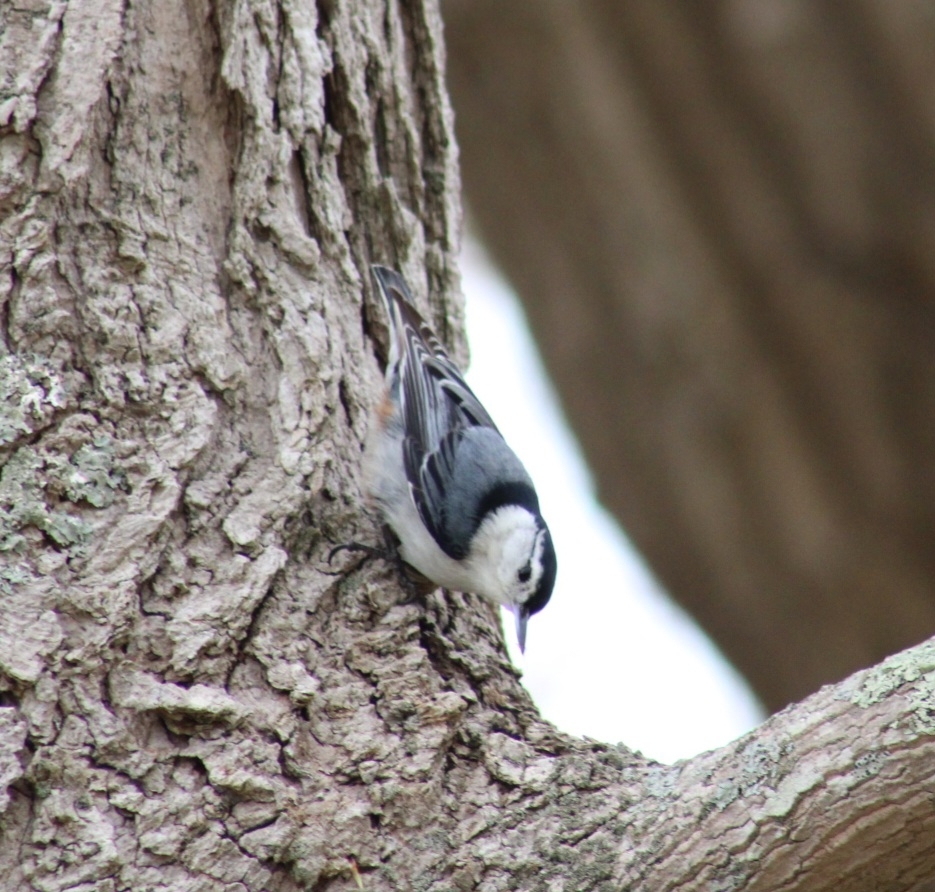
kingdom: Animalia
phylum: Chordata
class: Aves
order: Passeriformes
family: Sittidae
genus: Sitta
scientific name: Sitta carolinensis
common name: White-breasted nuthatch
